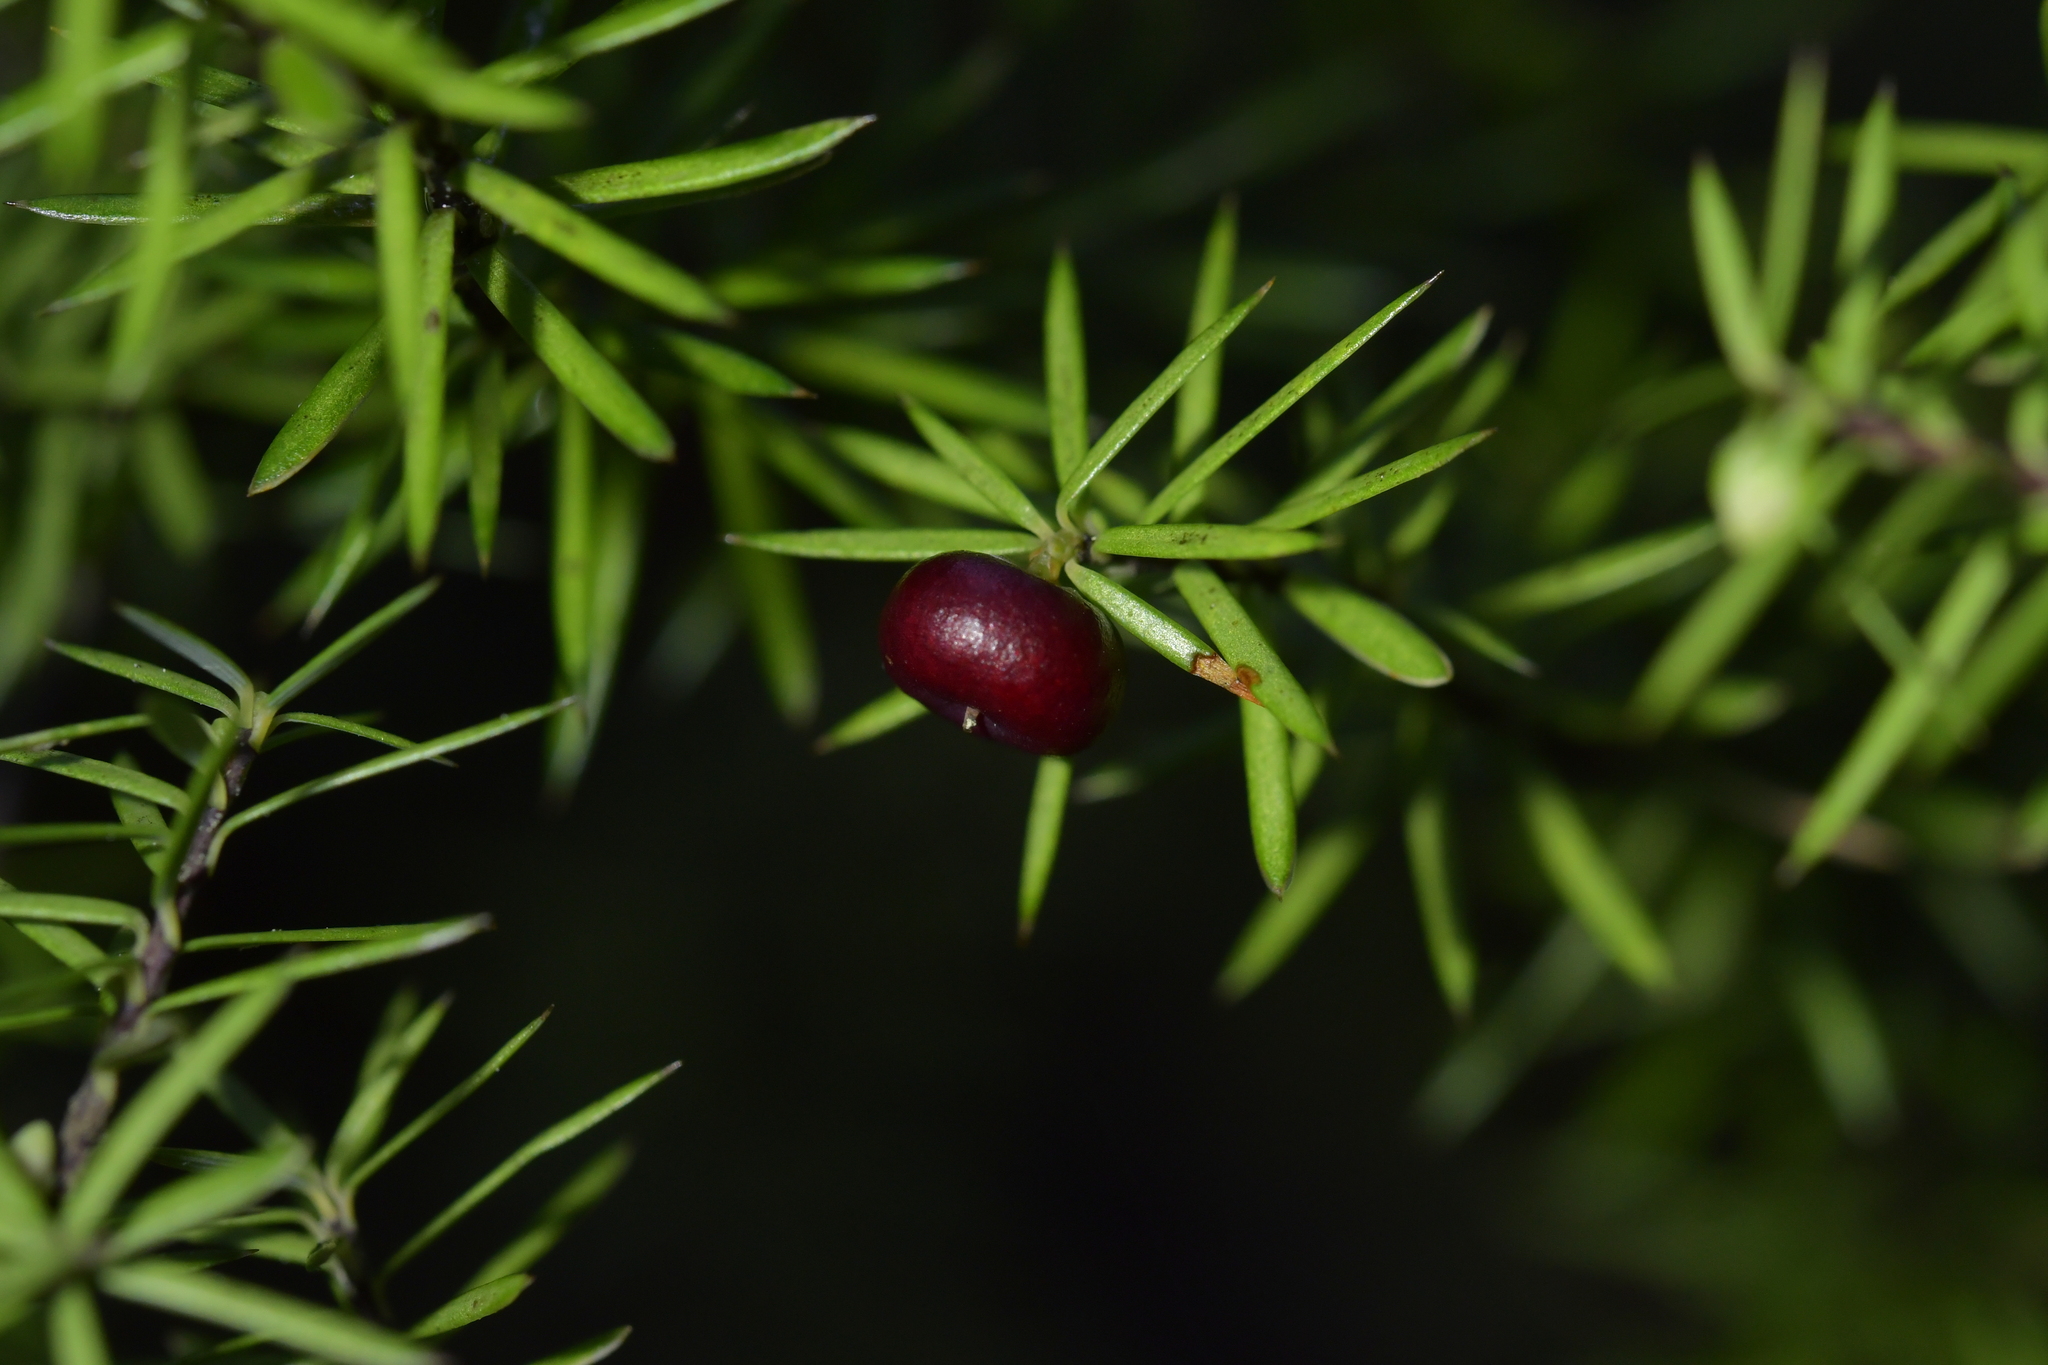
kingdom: Plantae
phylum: Tracheophyta
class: Magnoliopsida
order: Ericales
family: Ericaceae
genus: Leptecophylla
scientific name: Leptecophylla juniperina
